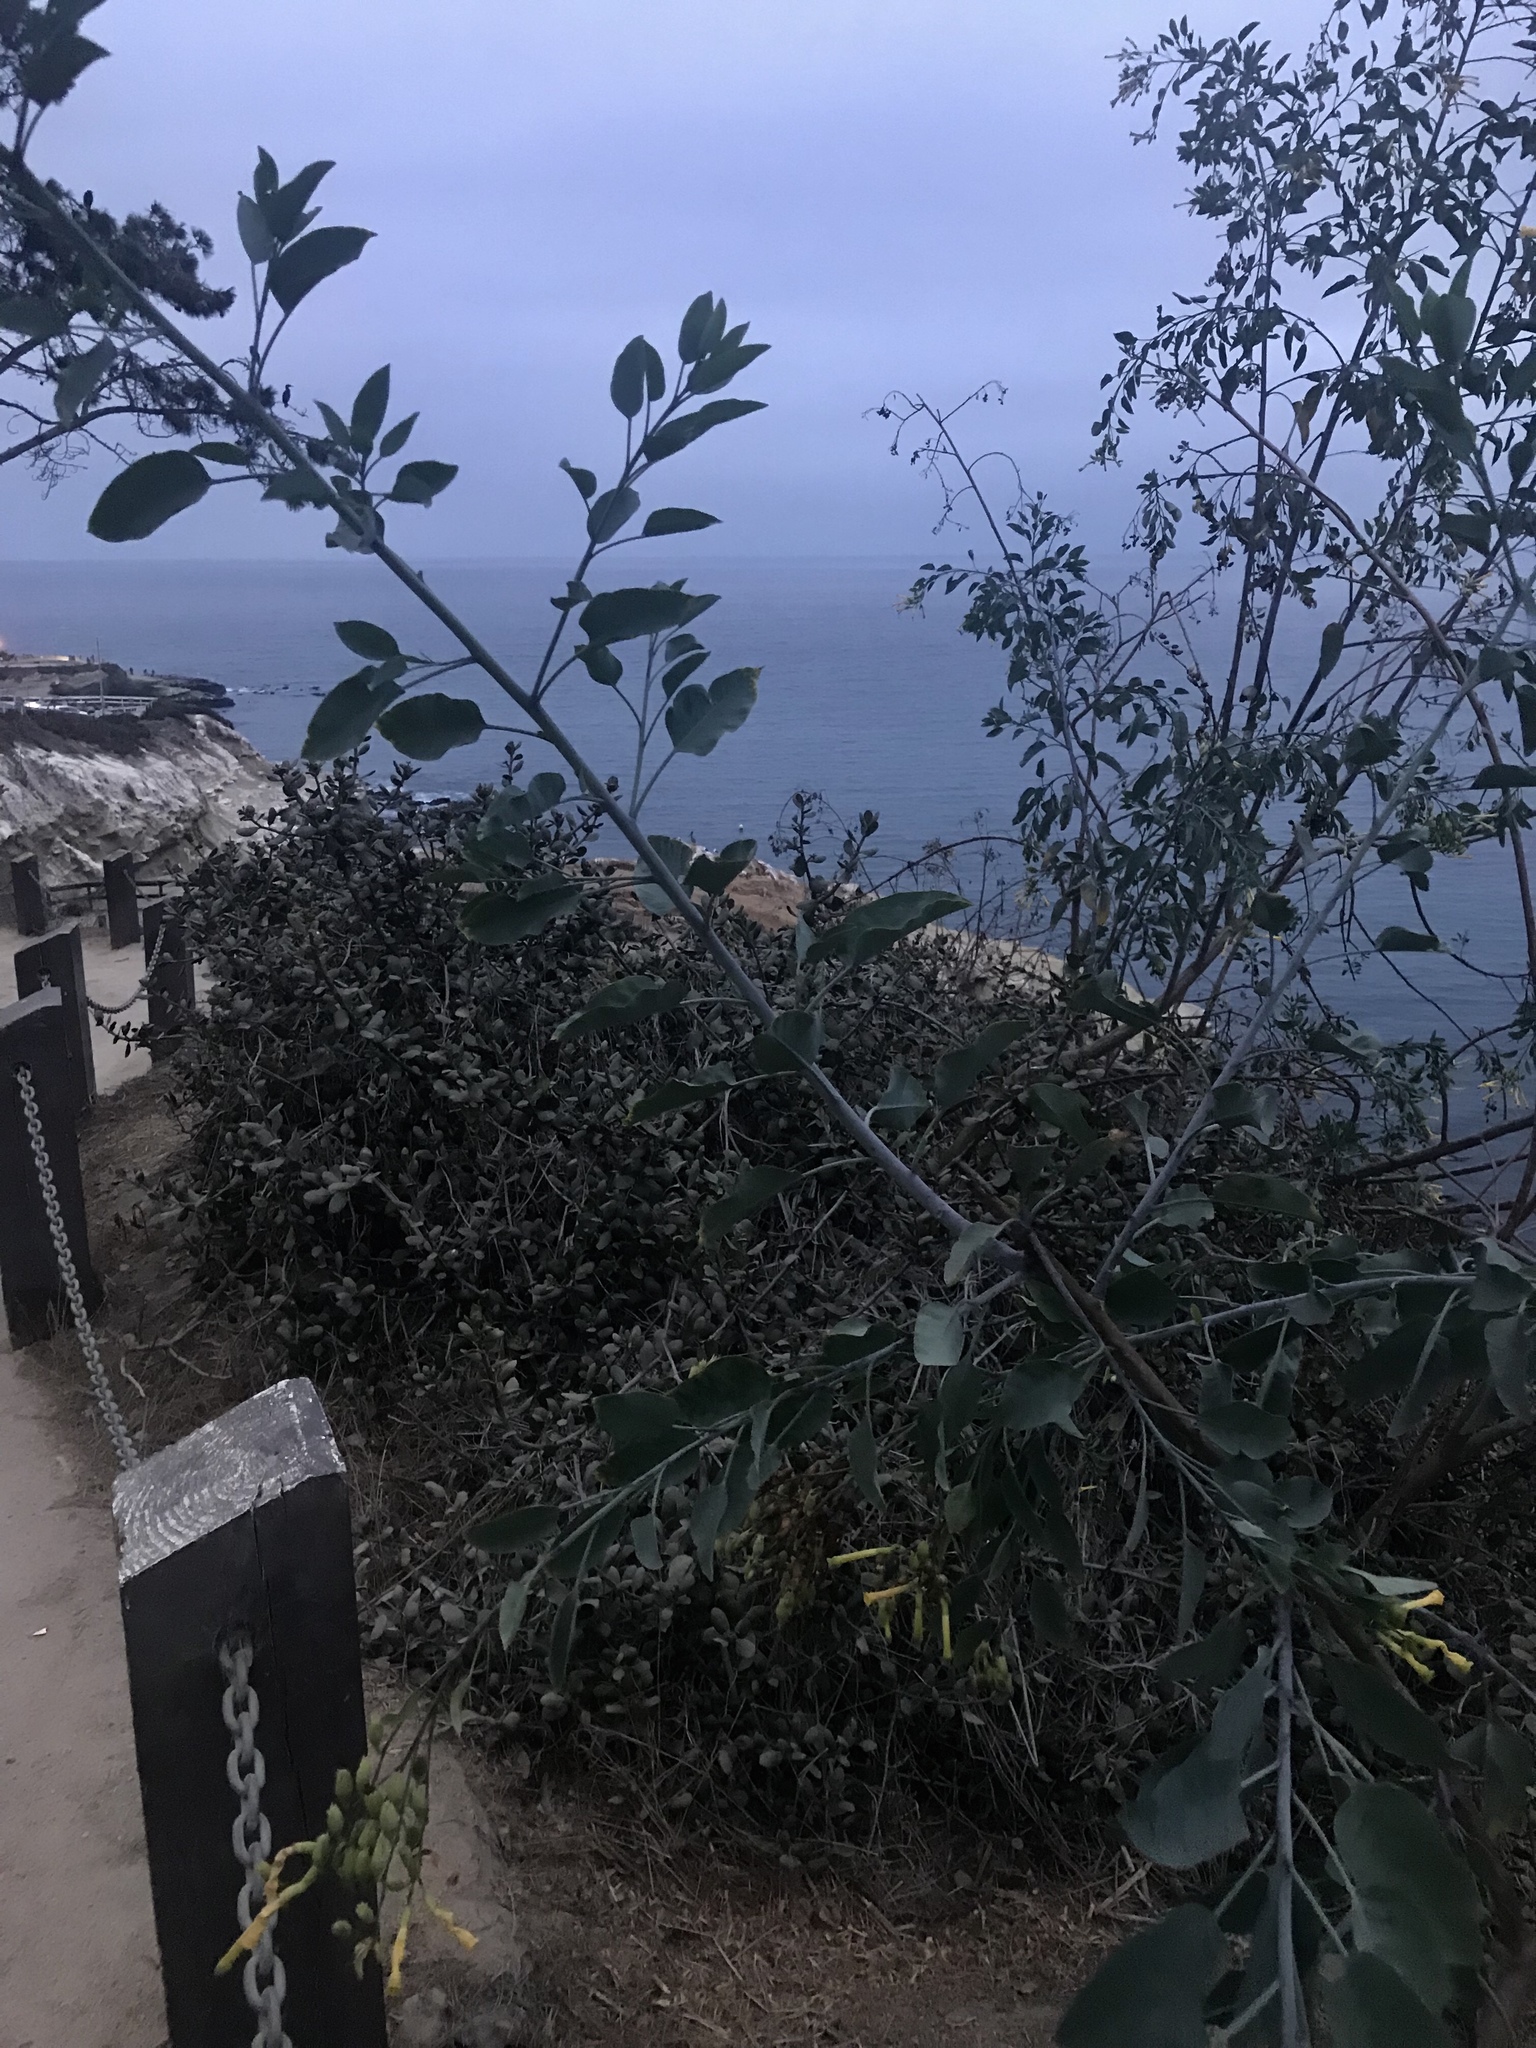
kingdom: Plantae
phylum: Tracheophyta
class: Magnoliopsida
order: Solanales
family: Solanaceae
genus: Nicotiana
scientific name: Nicotiana glauca
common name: Tree tobacco
